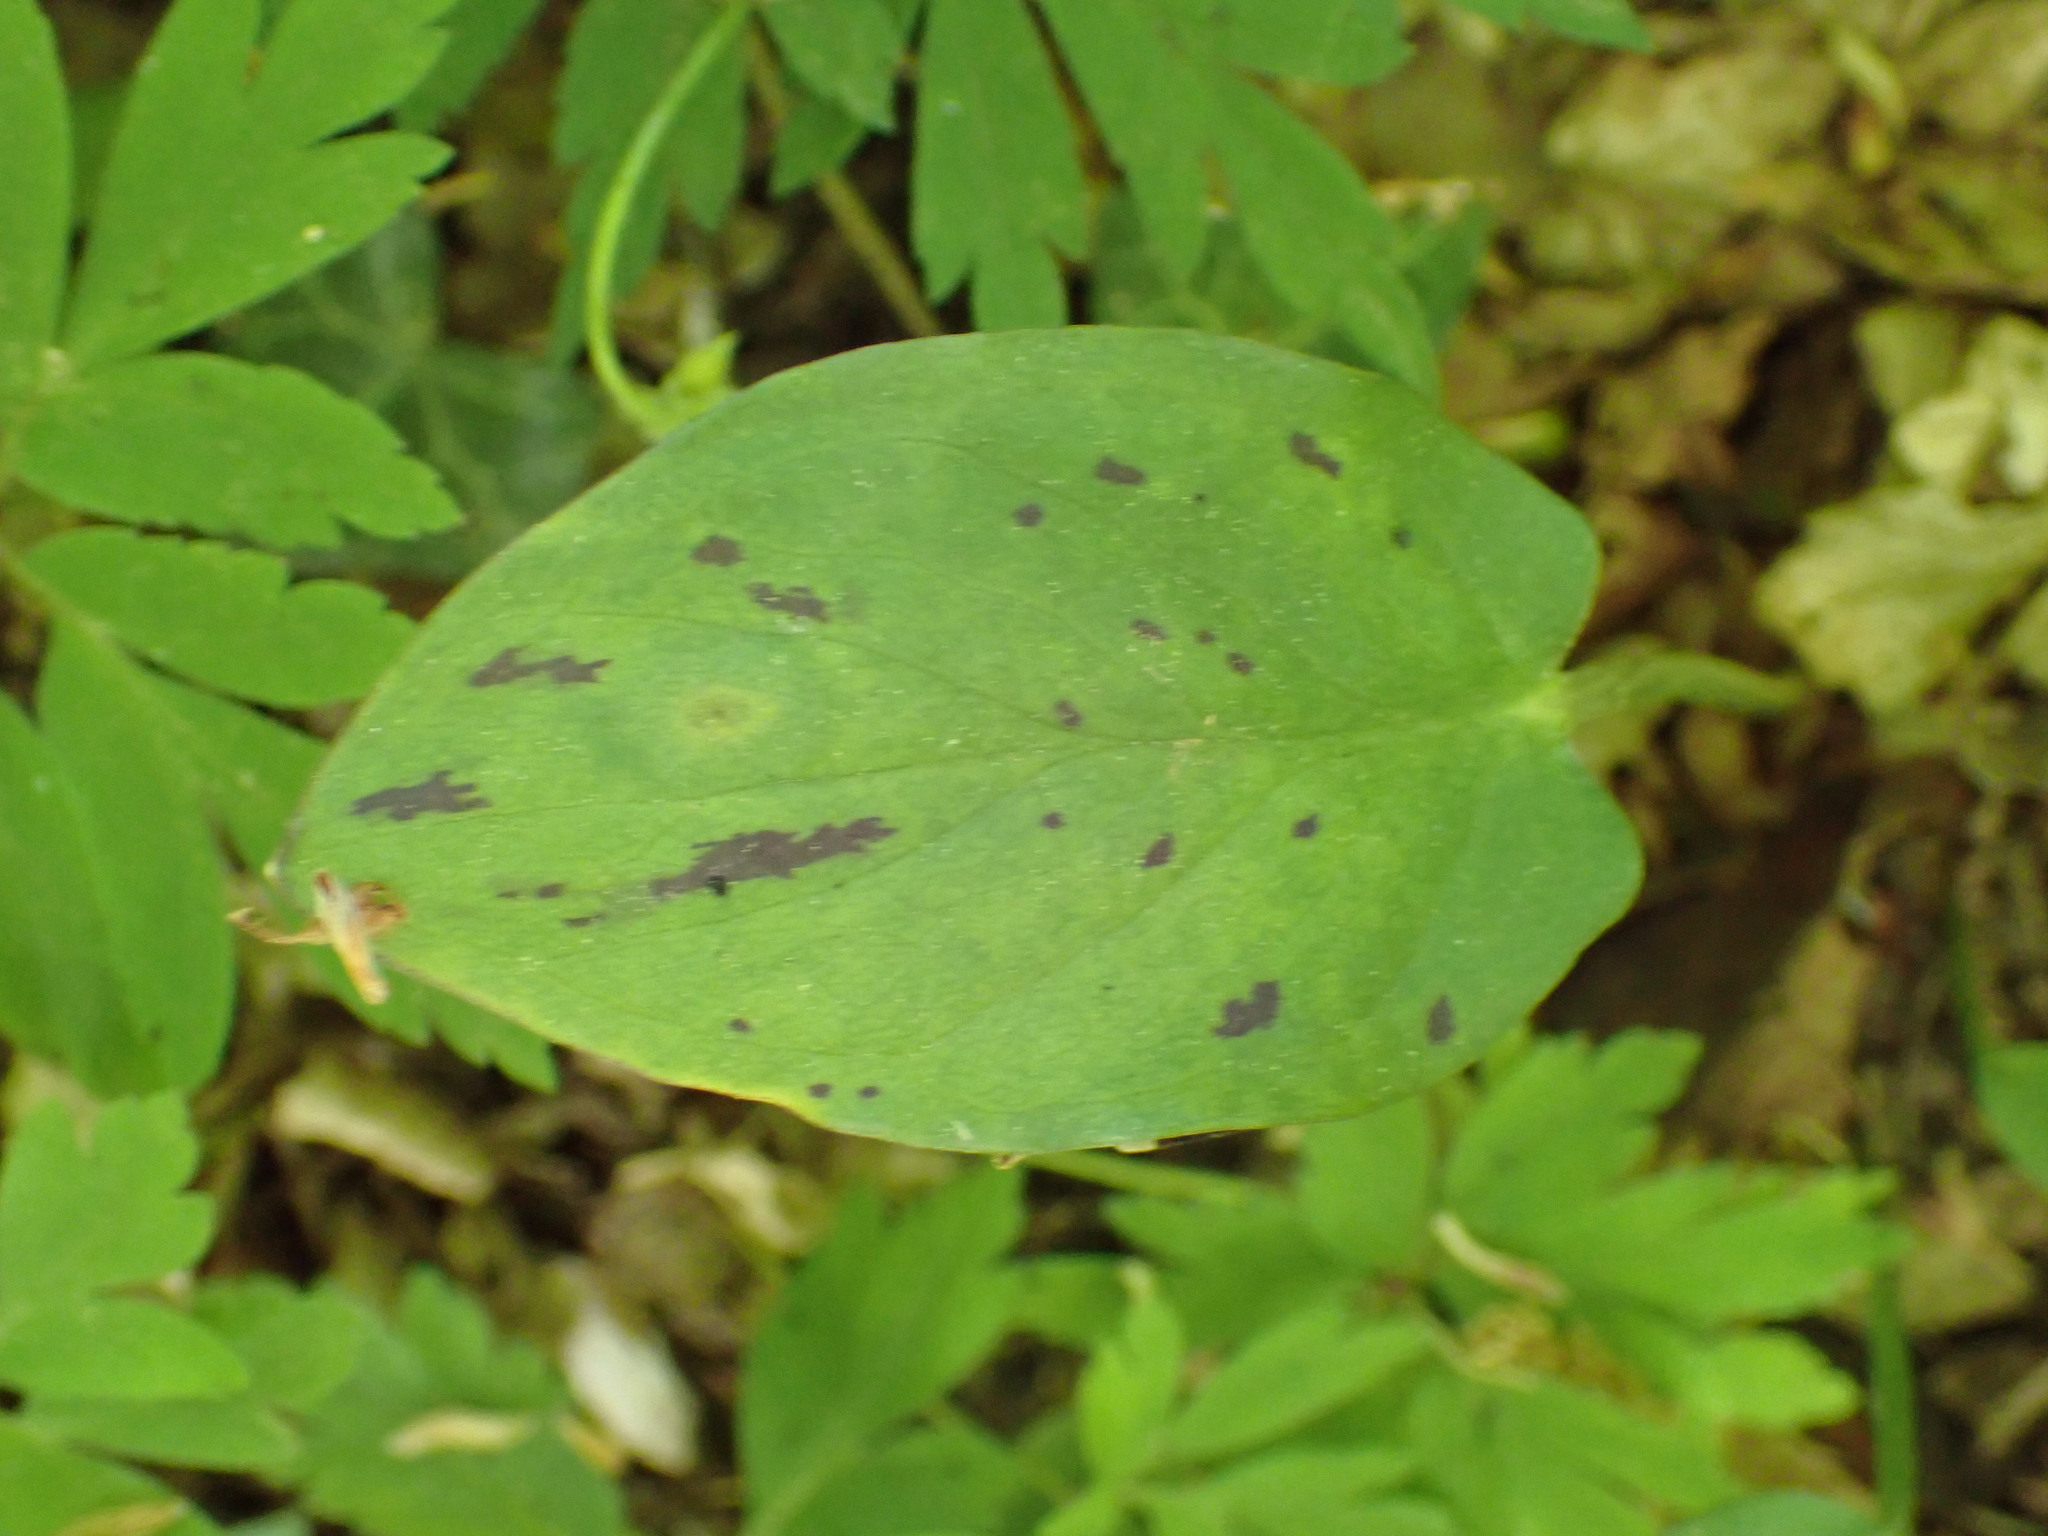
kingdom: Plantae
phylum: Tracheophyta
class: Liliopsida
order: Alismatales
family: Araceae
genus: Arum
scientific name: Arum maculatum
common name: Lords-and-ladies
